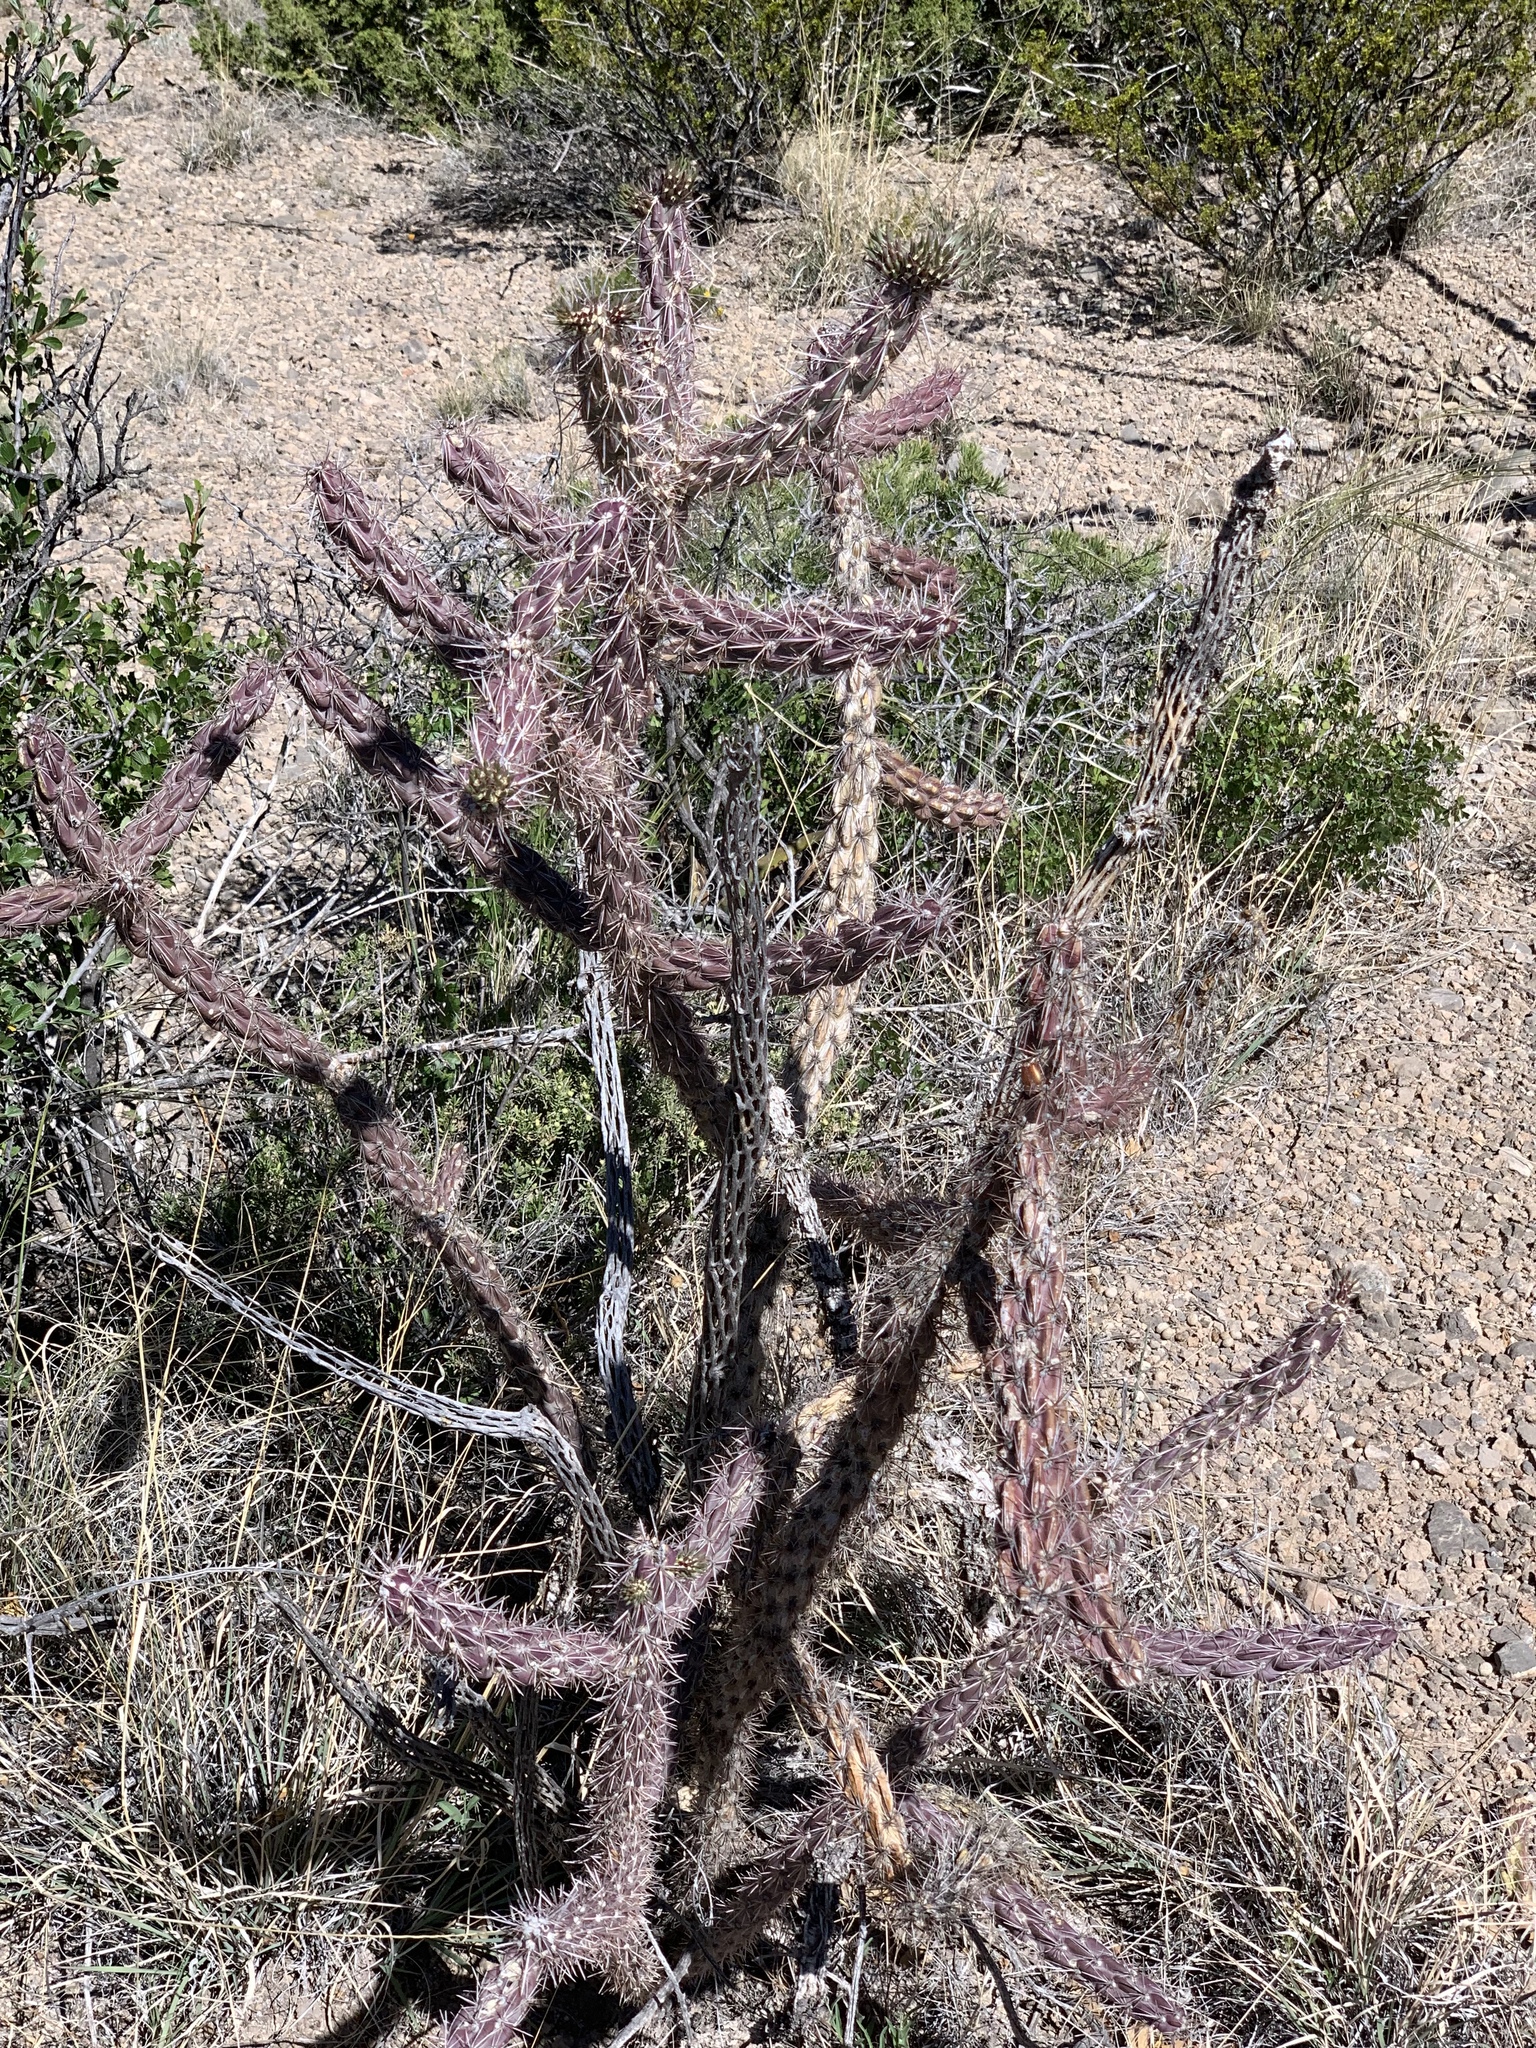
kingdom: Plantae
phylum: Tracheophyta
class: Magnoliopsida
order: Caryophyllales
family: Cactaceae
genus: Cylindropuntia
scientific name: Cylindropuntia imbricata
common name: Candelabrum cactus
